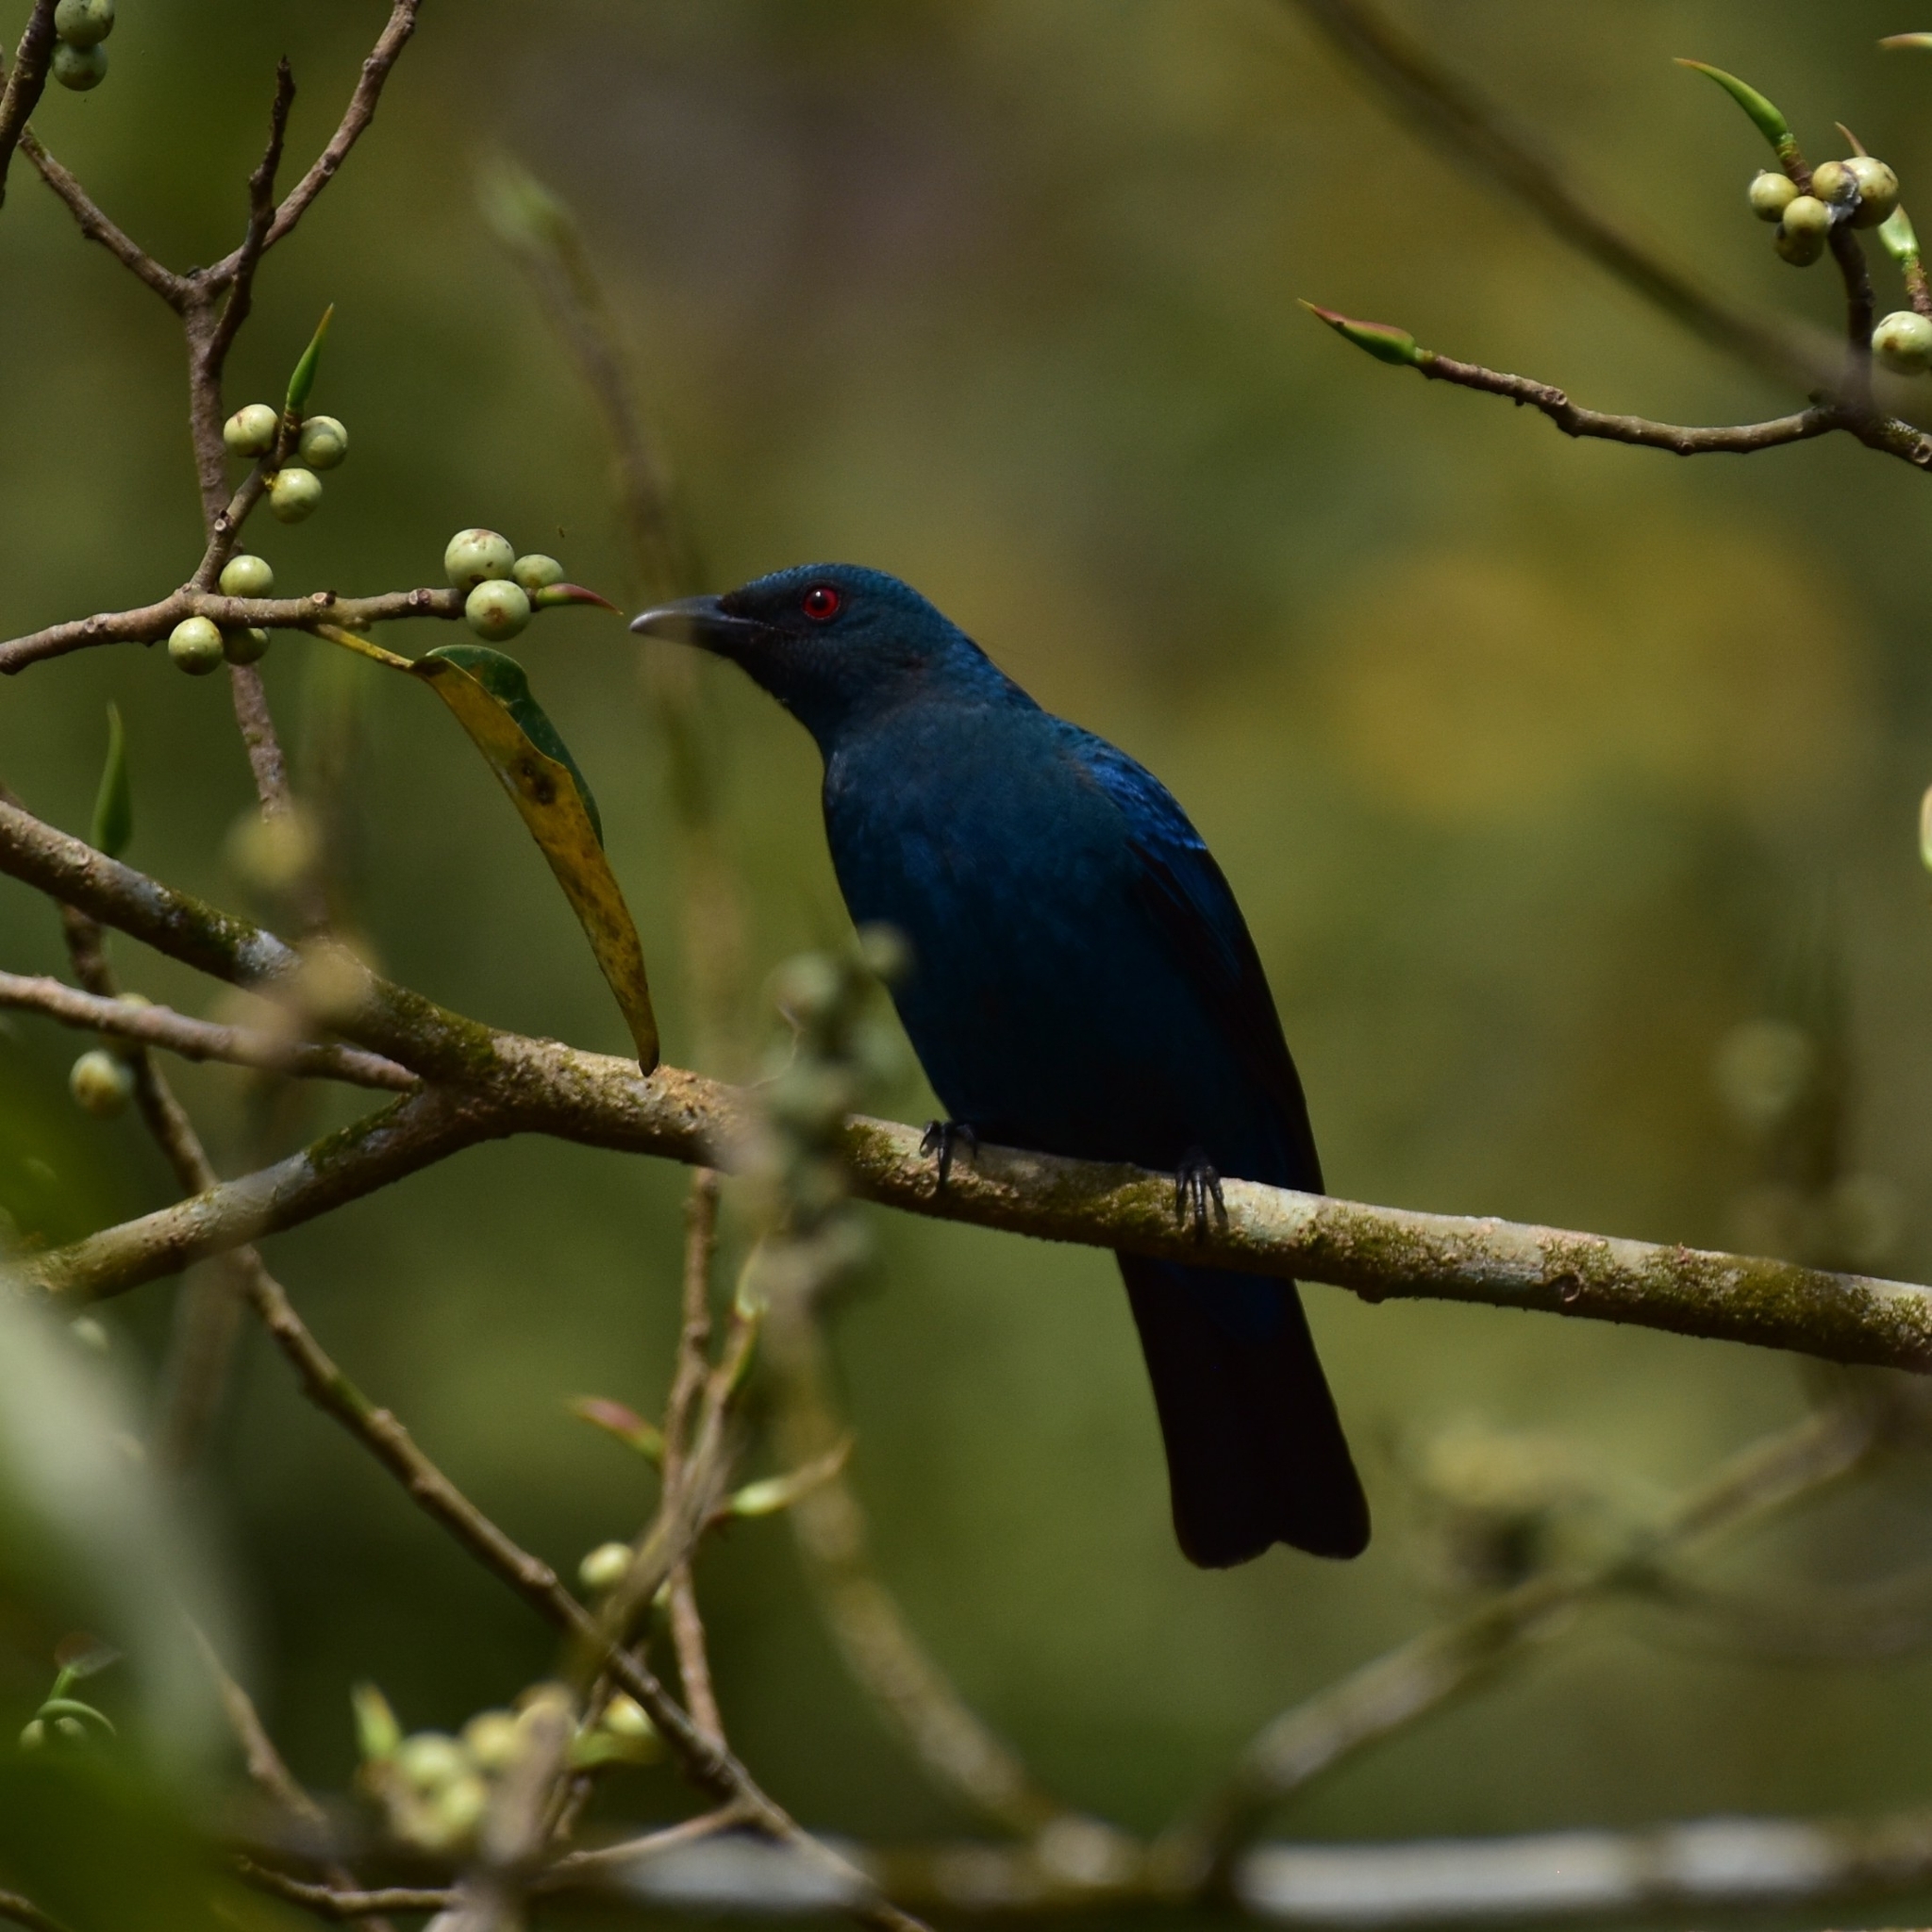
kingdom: Animalia
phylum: Chordata
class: Aves
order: Passeriformes
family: Irenidae
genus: Irena
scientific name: Irena puella
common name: Asian fairy-bluebird
